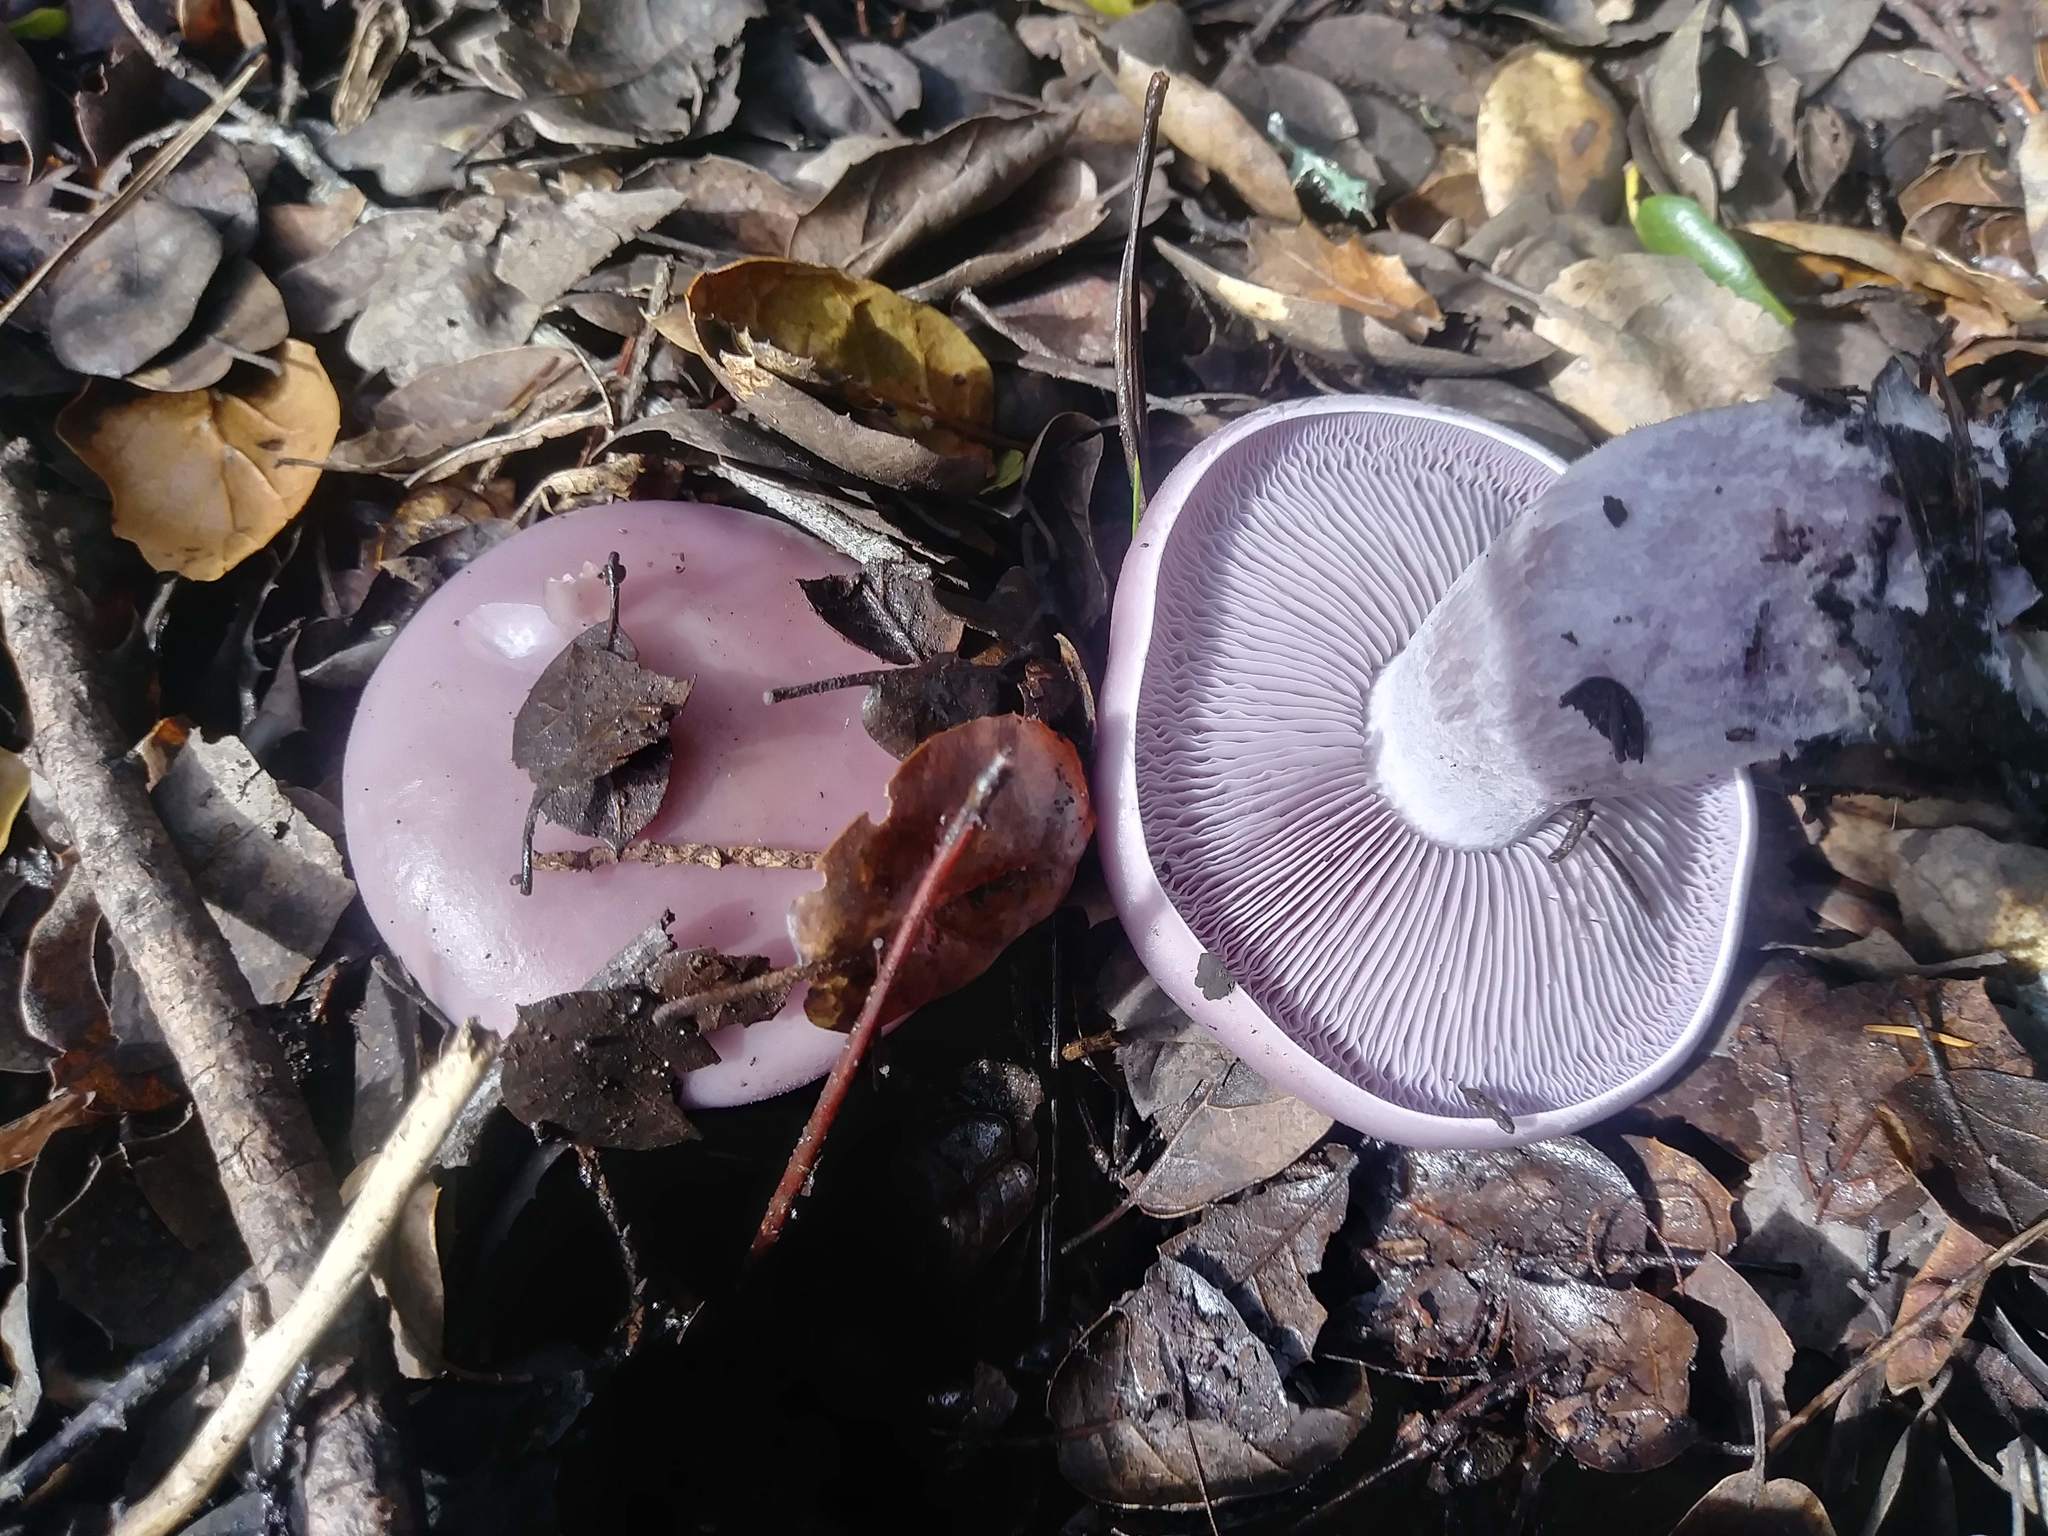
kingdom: Fungi
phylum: Basidiomycota
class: Agaricomycetes
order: Agaricales
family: Tricholomataceae
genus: Collybia
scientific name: Collybia
